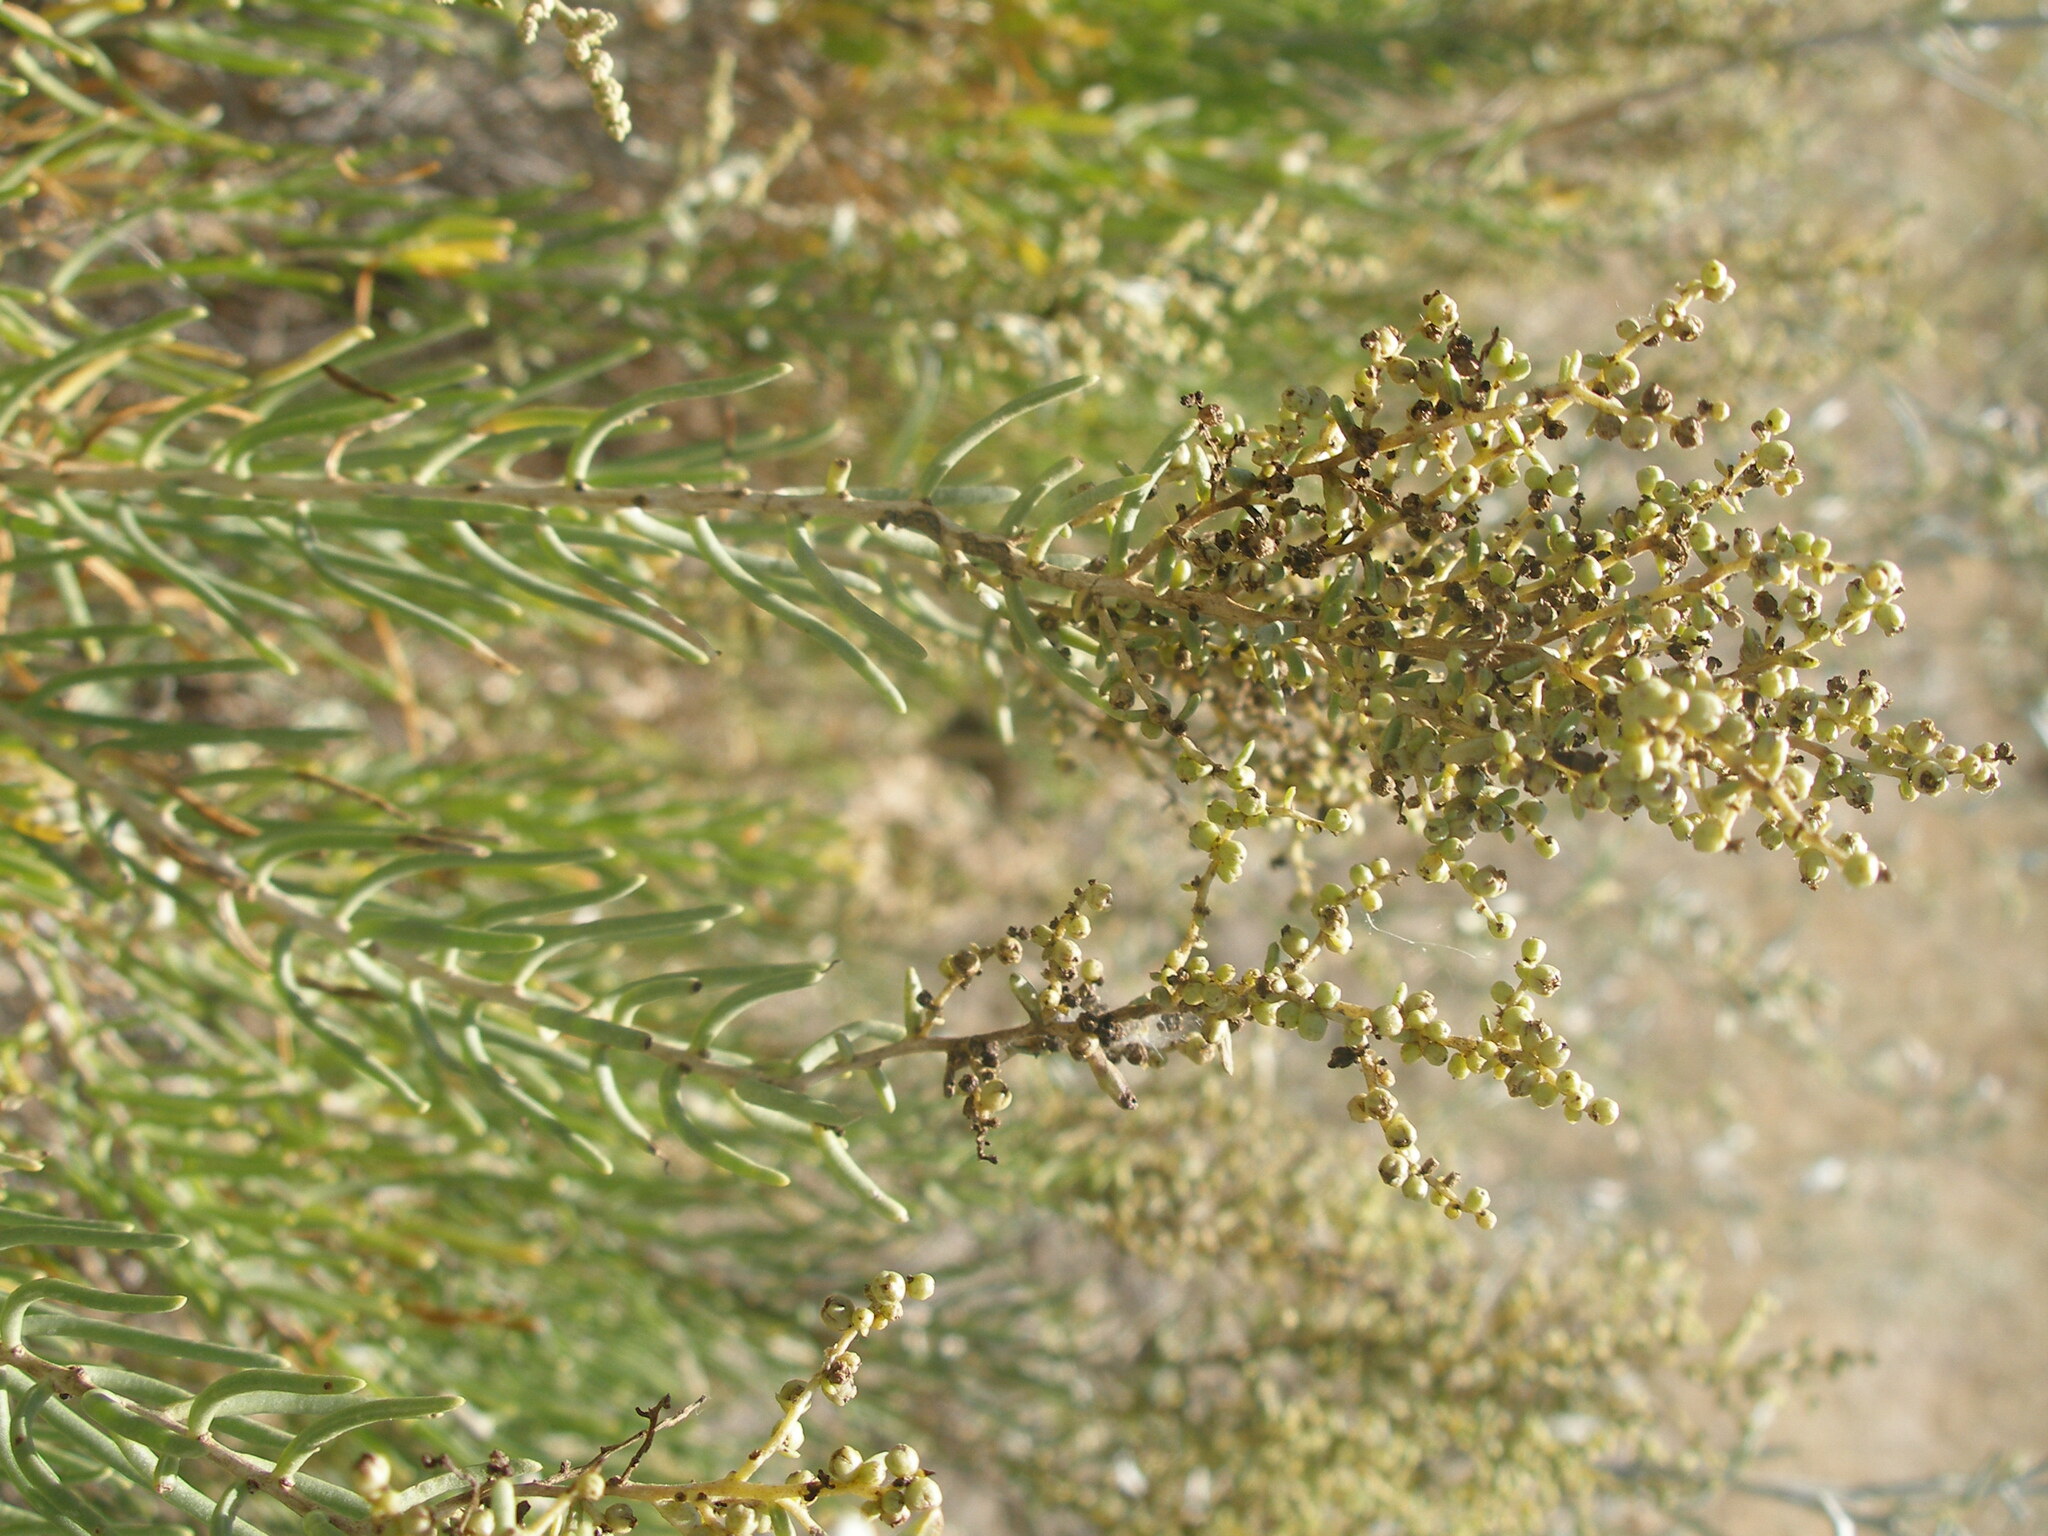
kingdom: Plantae
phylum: Tracheophyta
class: Magnoliopsida
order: Caryophyllales
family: Amaranthaceae
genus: Suaeda
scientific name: Suaeda physophora
